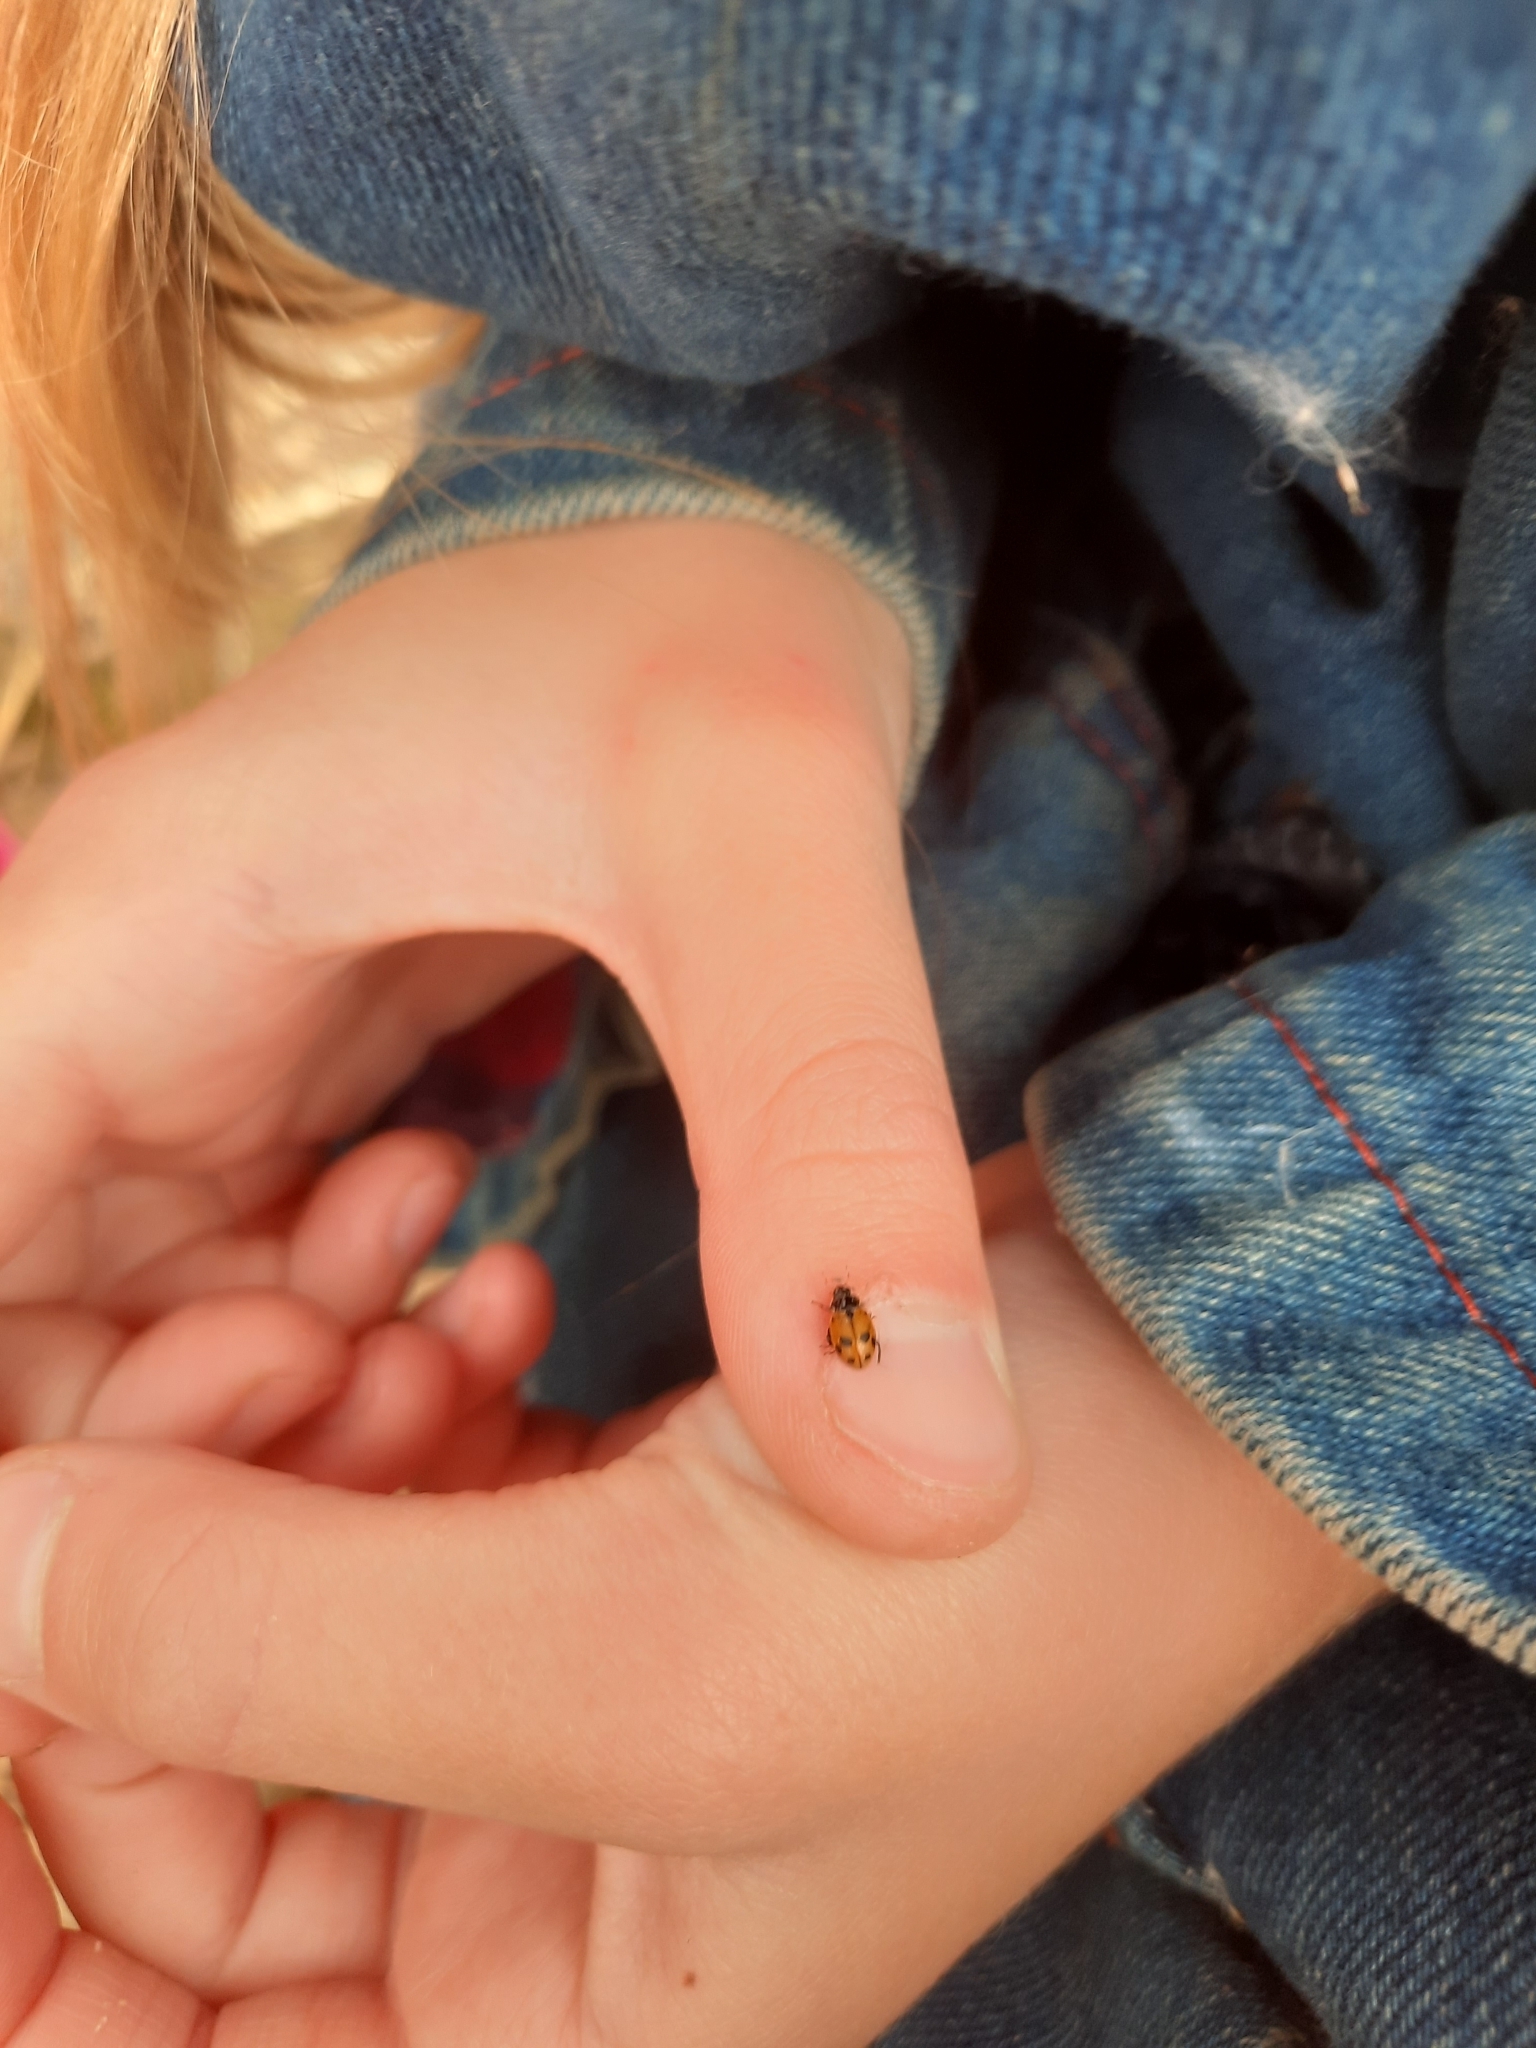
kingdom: Animalia
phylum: Arthropoda
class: Insecta
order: Coleoptera
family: Coccinellidae
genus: Hippodamia
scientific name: Hippodamia variegata
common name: Ladybird beetle
